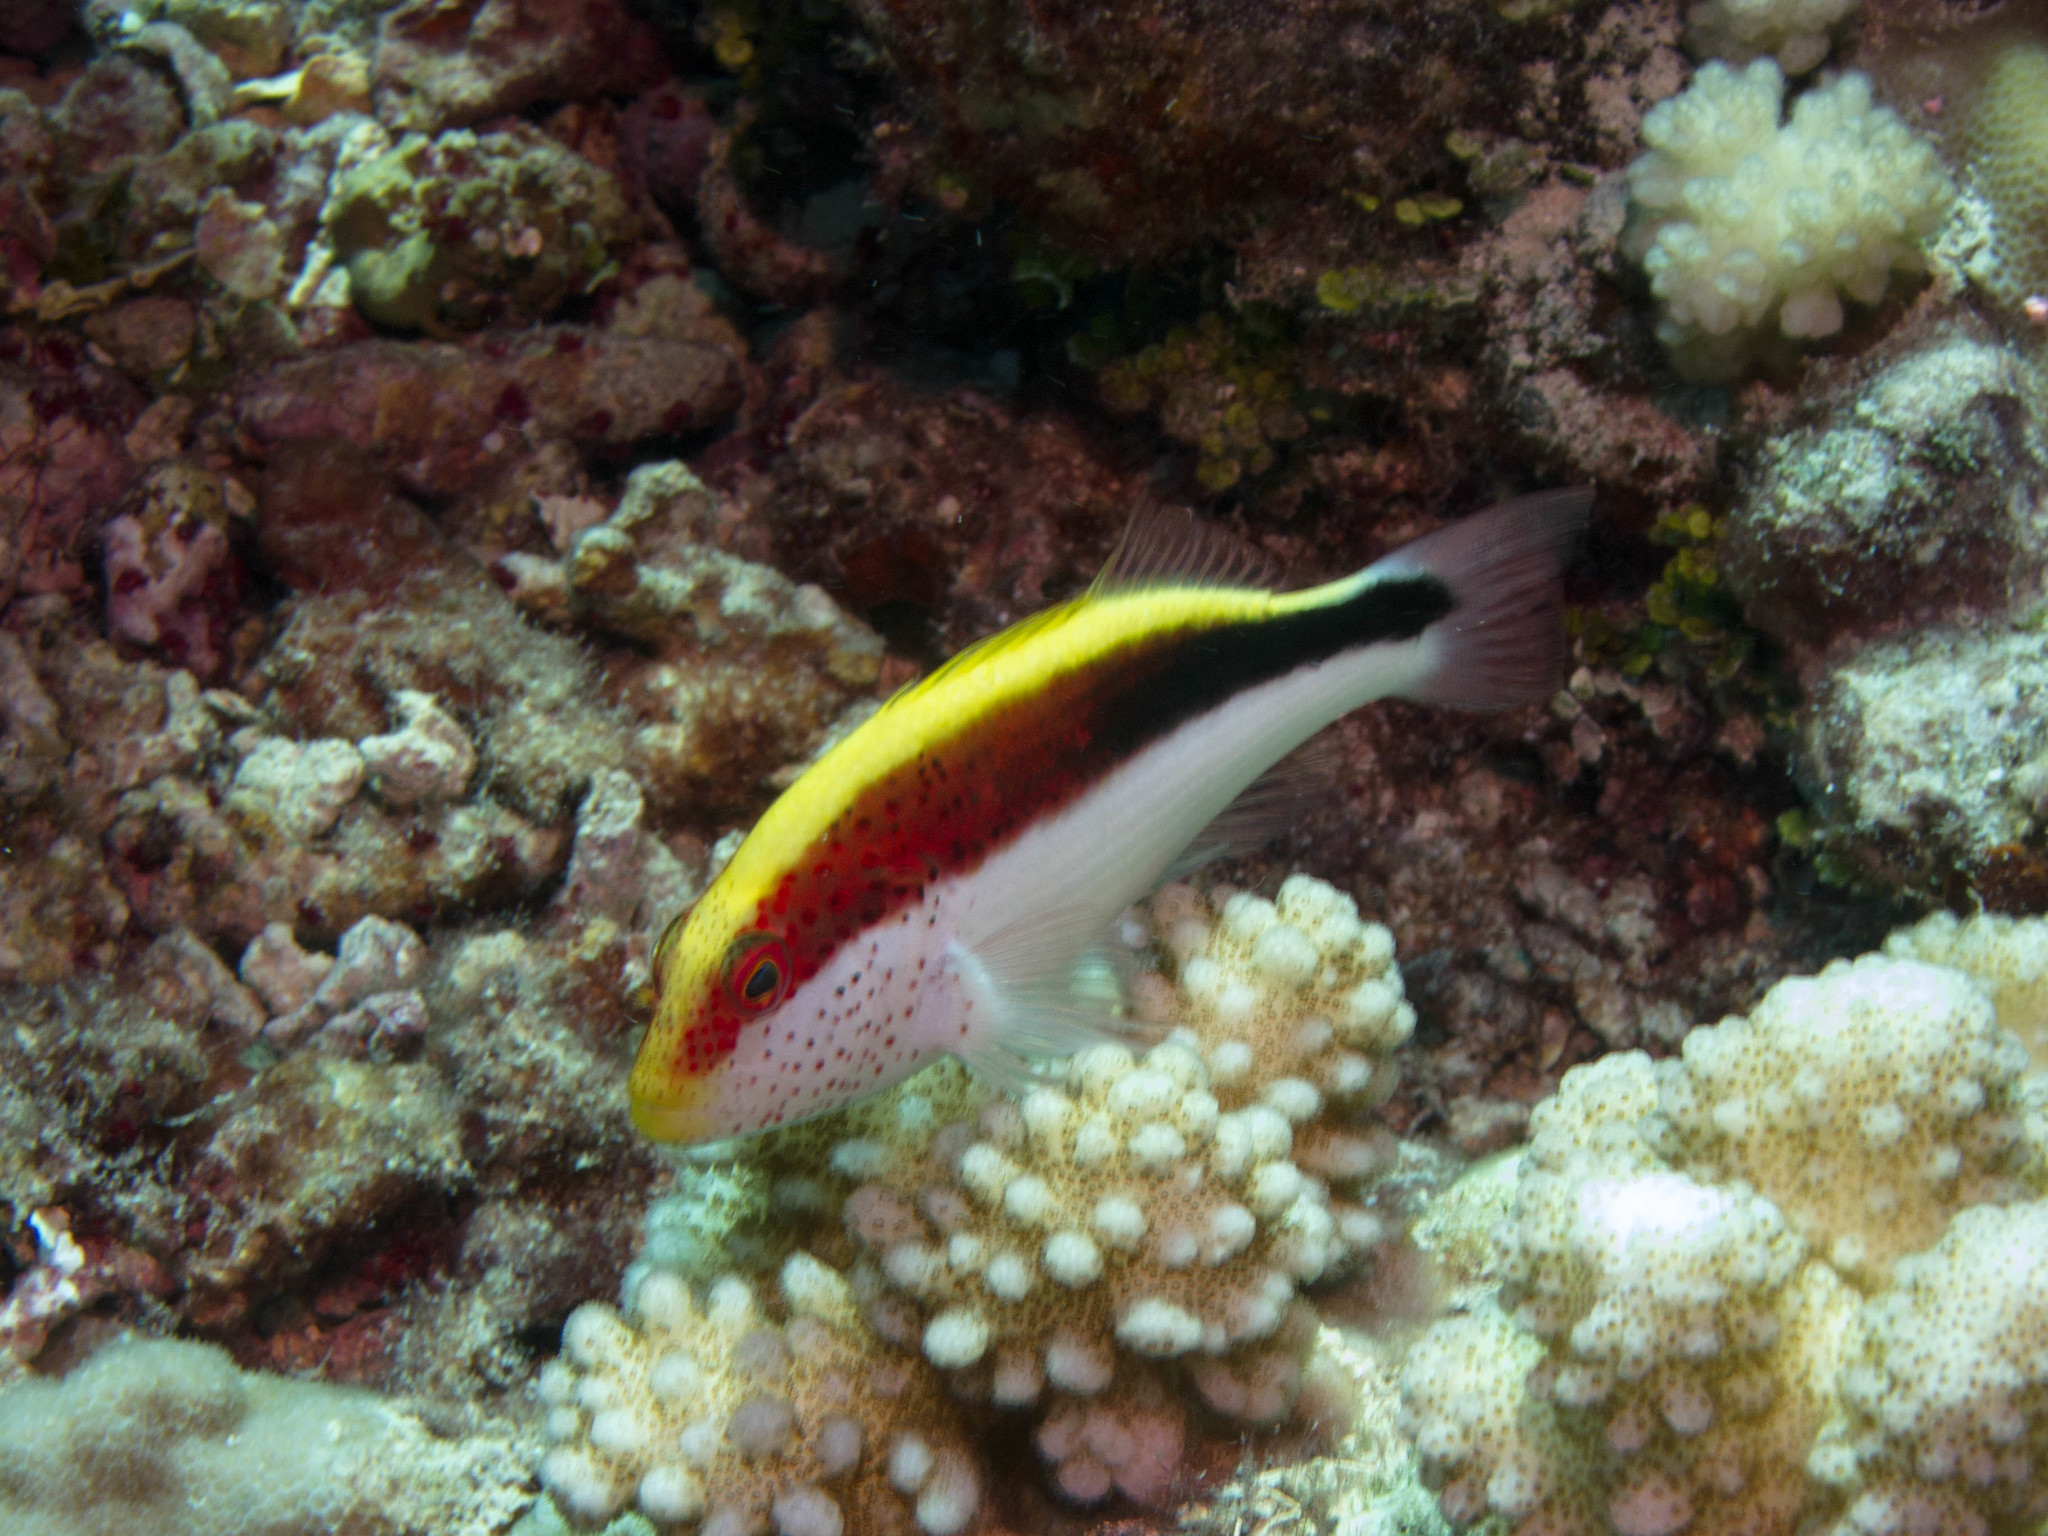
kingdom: Animalia
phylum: Chordata
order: Perciformes
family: Cirrhitidae
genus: Paracirrhites
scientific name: Paracirrhites forsteri
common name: Freckled hawkfish
